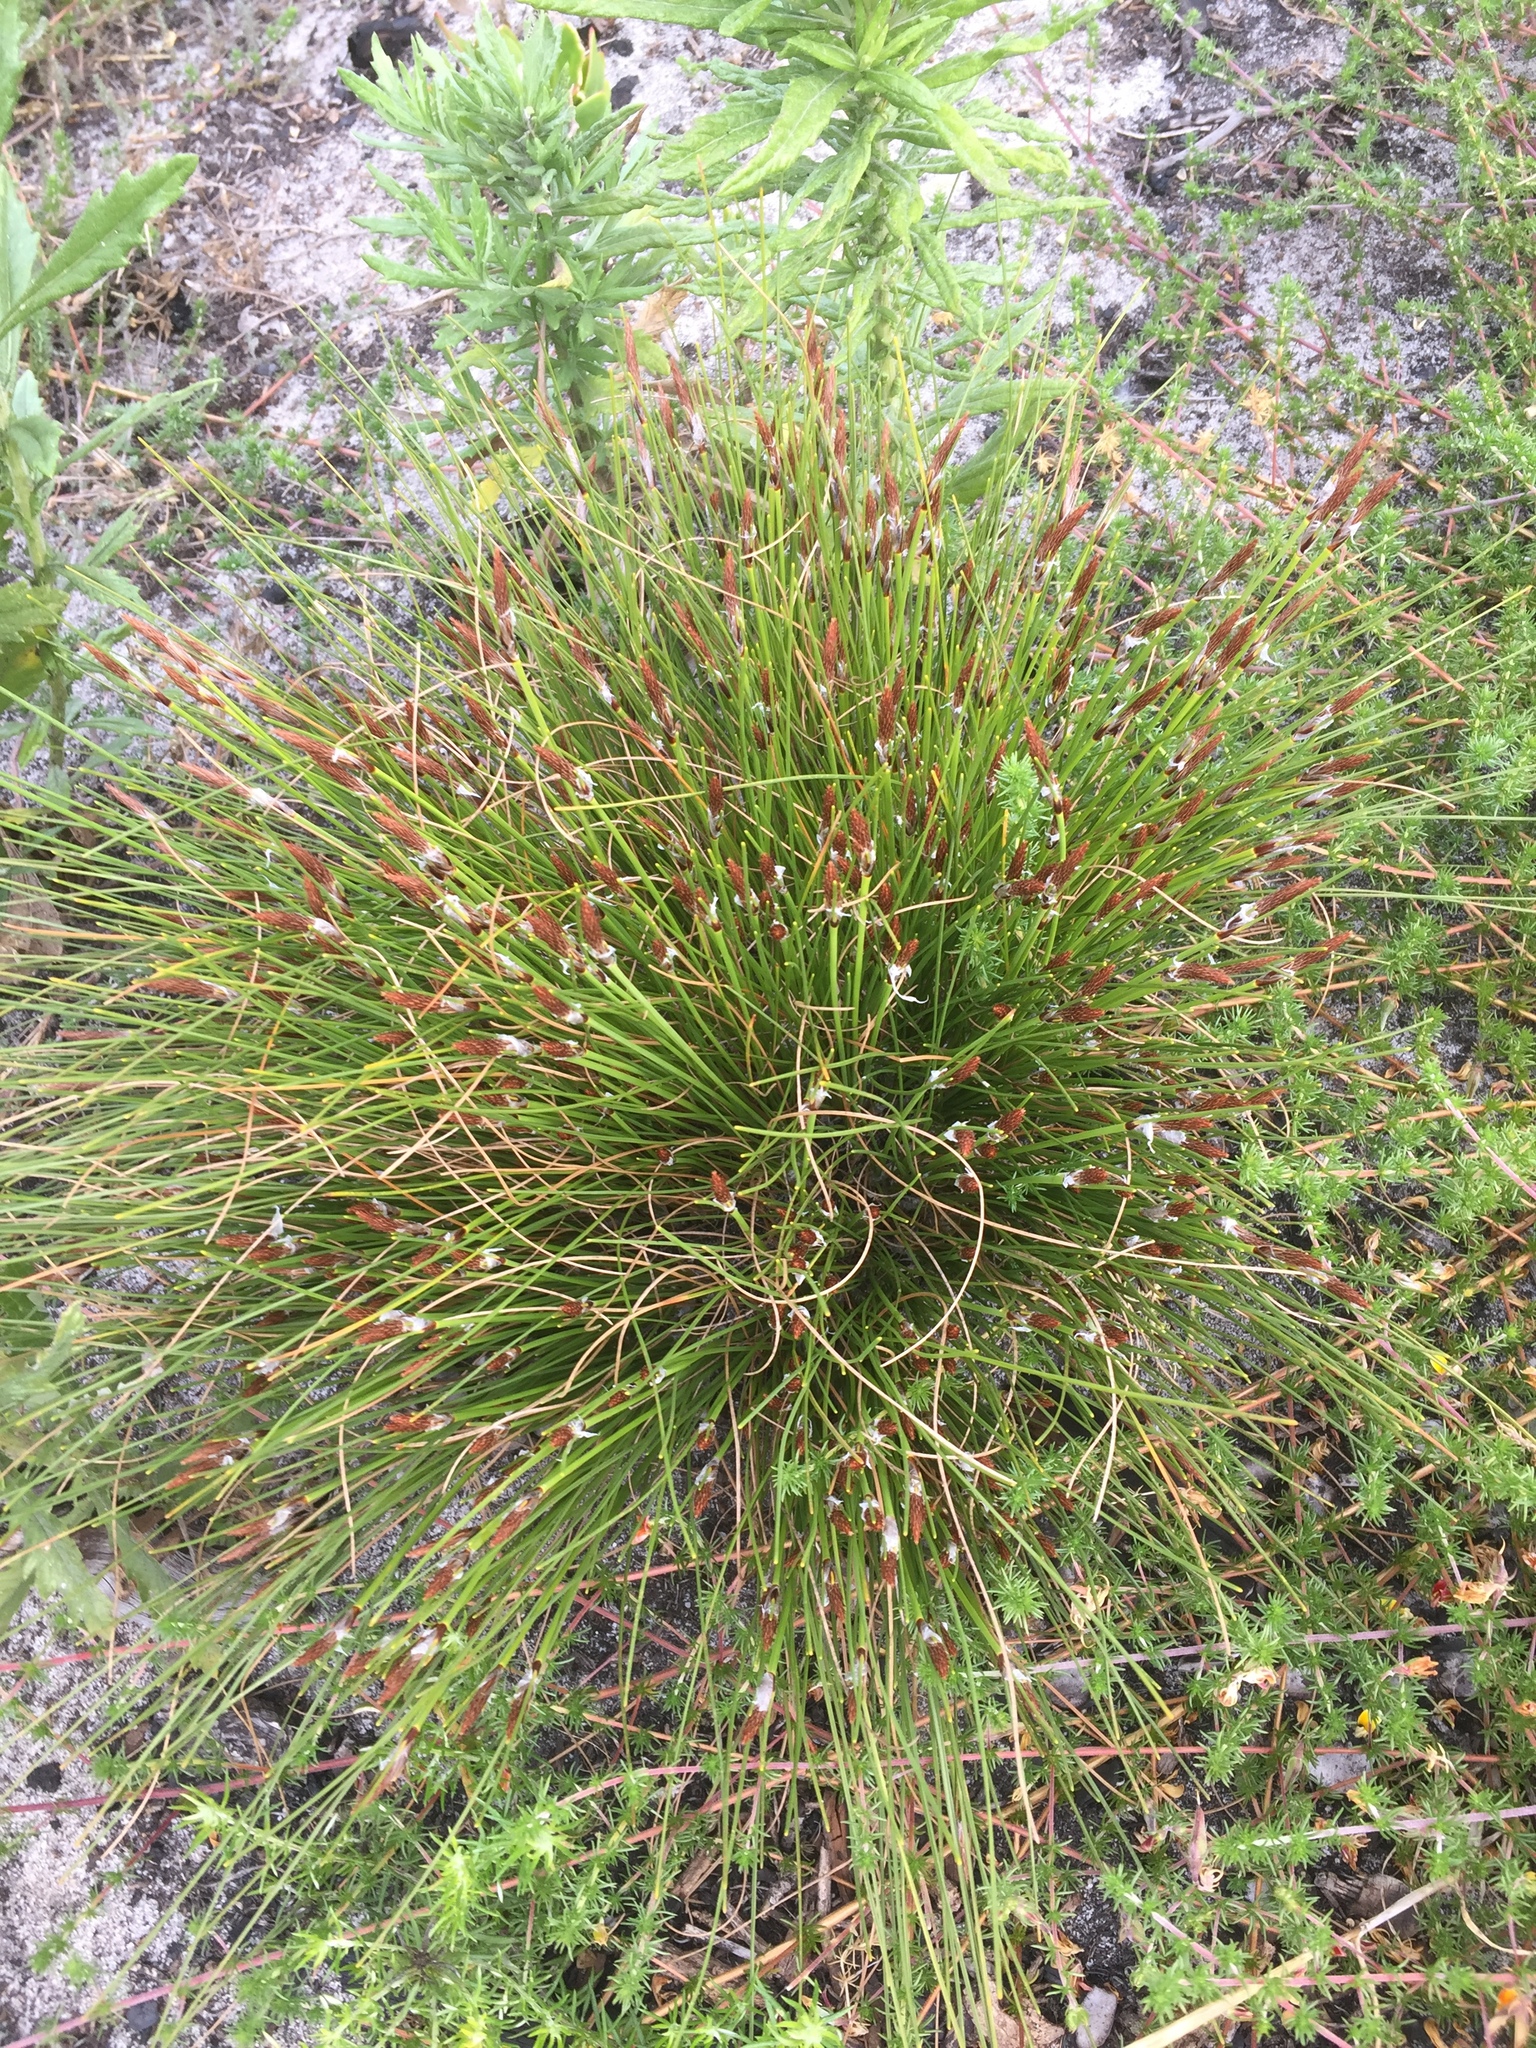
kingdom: Plantae
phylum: Tracheophyta
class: Liliopsida
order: Poales
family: Cyperaceae
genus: Ficinia
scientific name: Ficinia deusta
